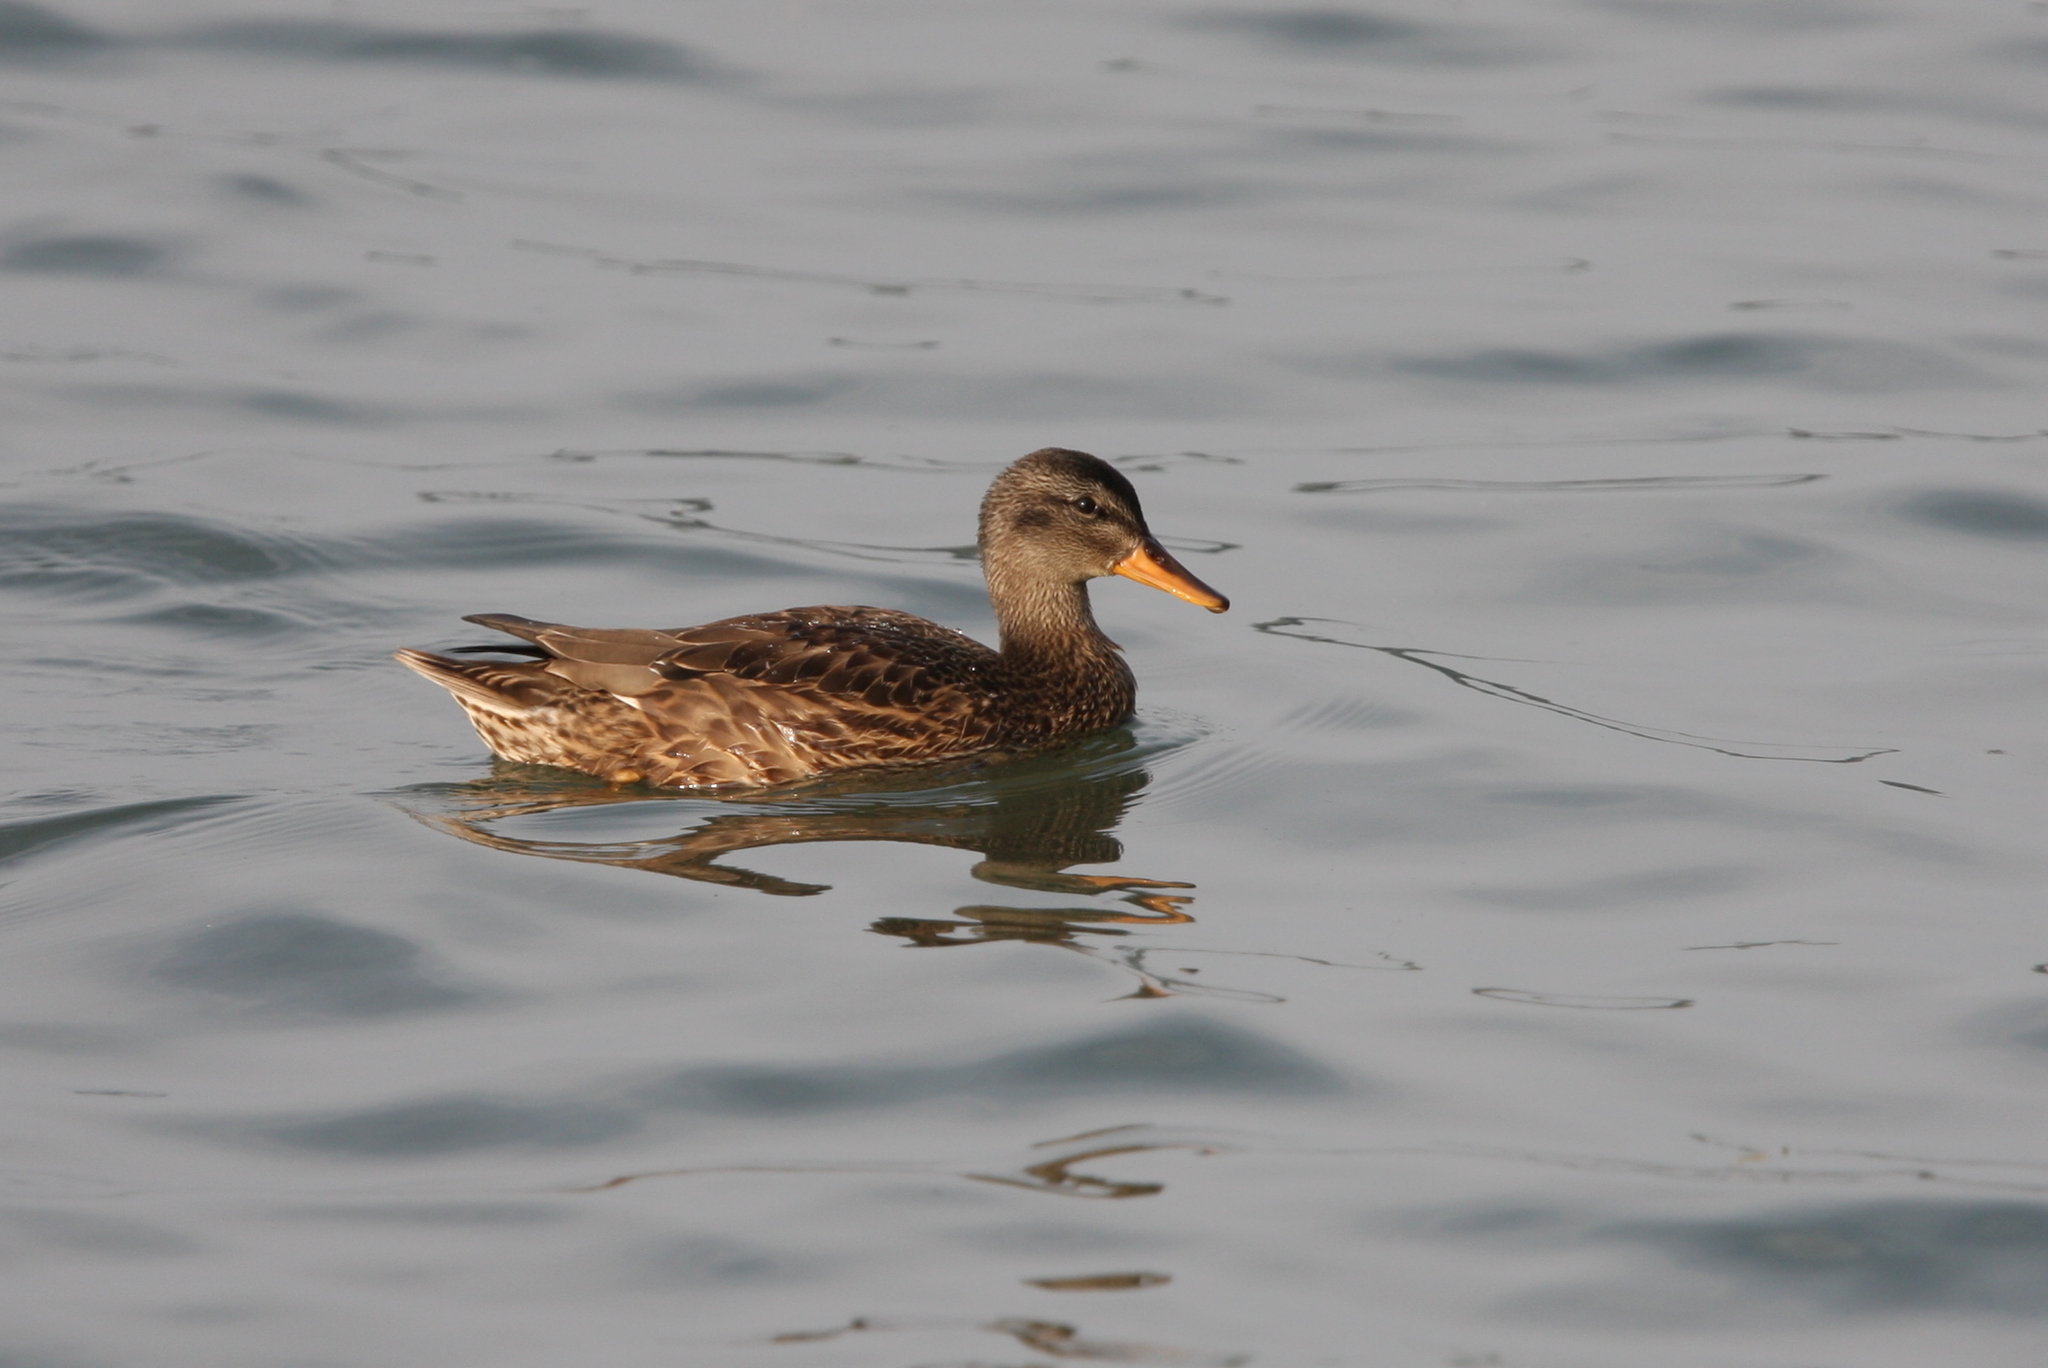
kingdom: Animalia
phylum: Chordata
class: Aves
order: Anseriformes
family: Anatidae
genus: Mareca
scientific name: Mareca strepera
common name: Gadwall
